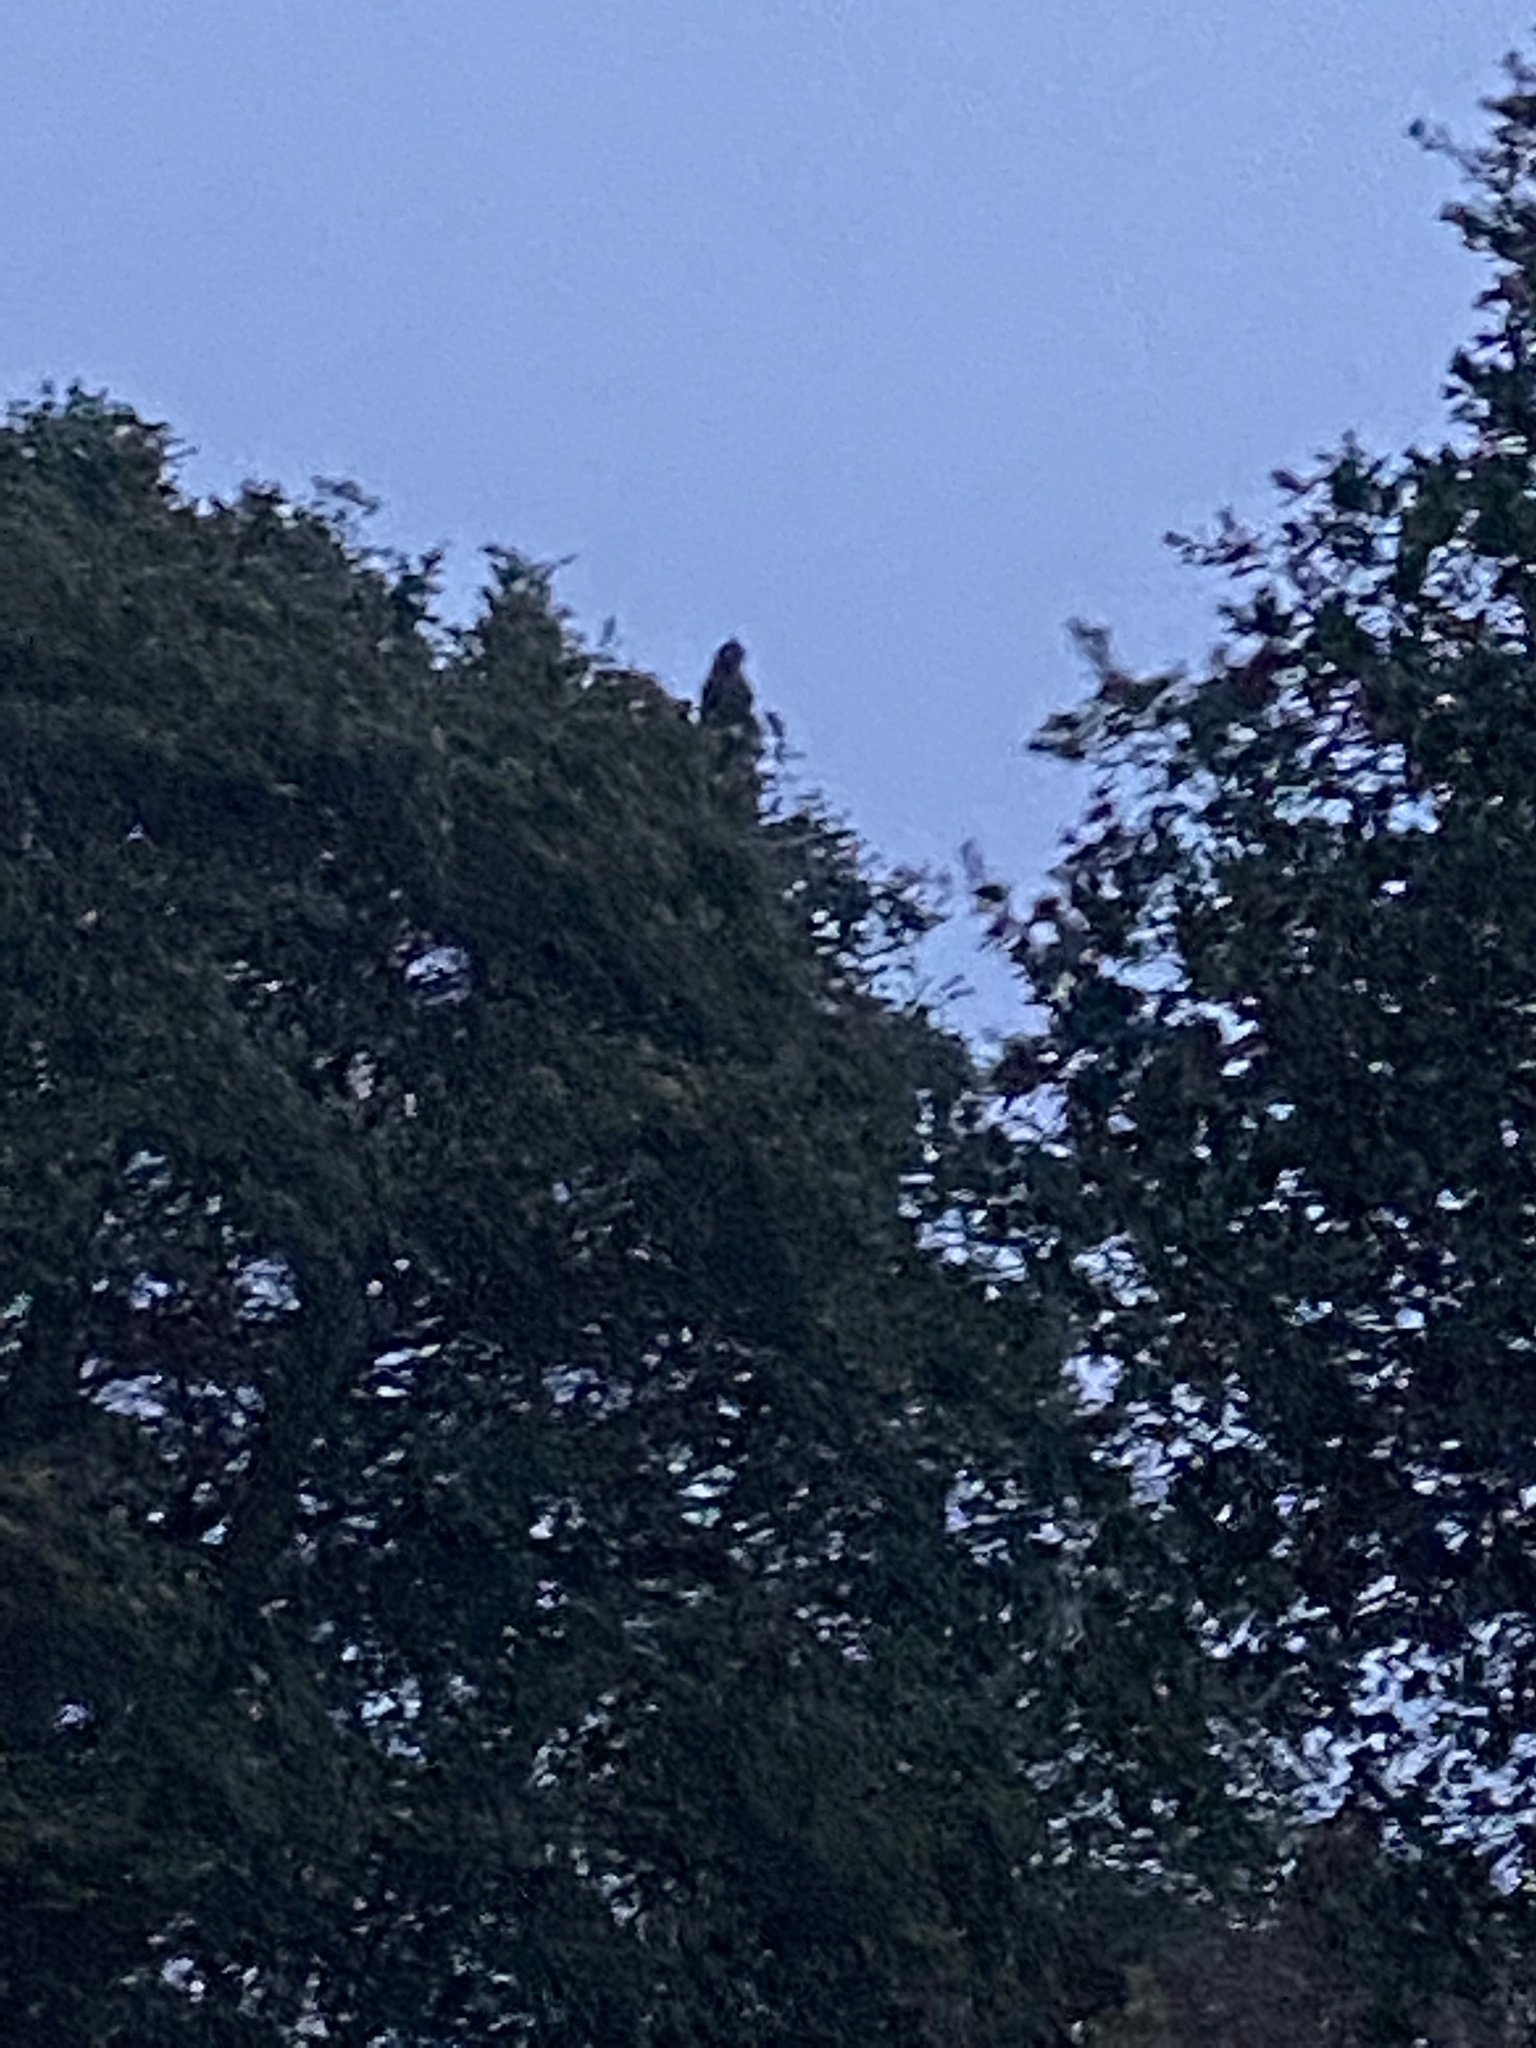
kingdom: Animalia
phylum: Chordata
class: Aves
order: Strigiformes
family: Strigidae
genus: Bubo
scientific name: Bubo virginianus
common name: Great horned owl
